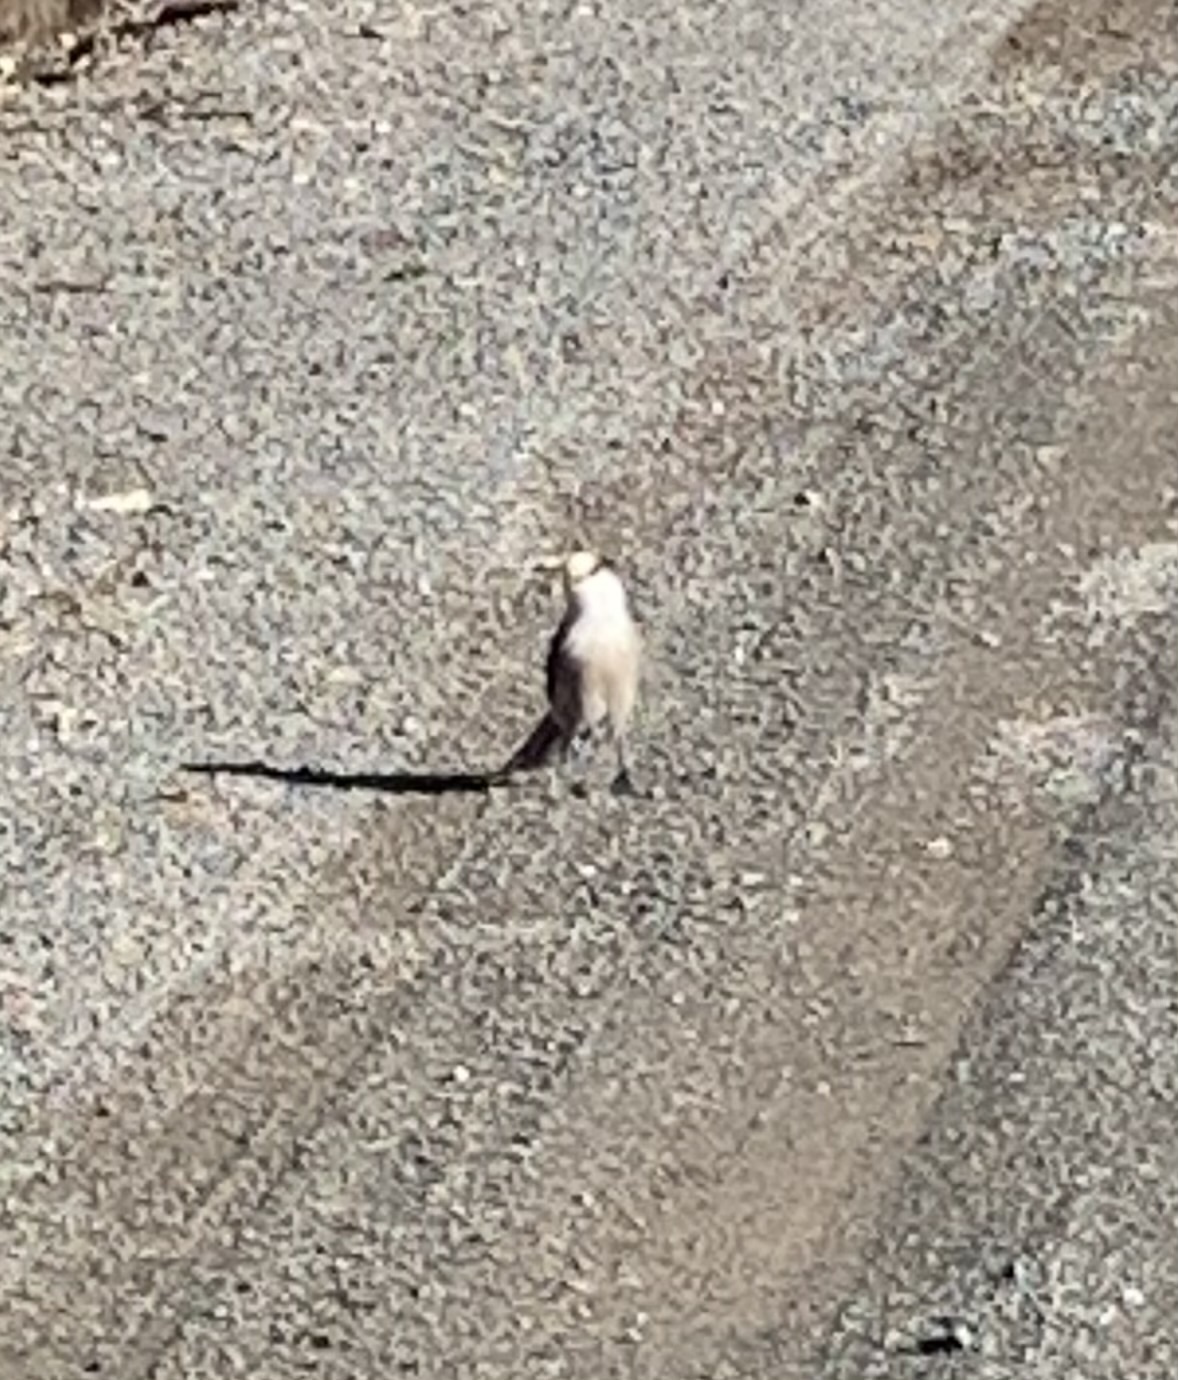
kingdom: Animalia
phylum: Chordata
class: Aves
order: Passeriformes
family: Corvidae
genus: Perisoreus
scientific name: Perisoreus canadensis
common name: Gray jay
